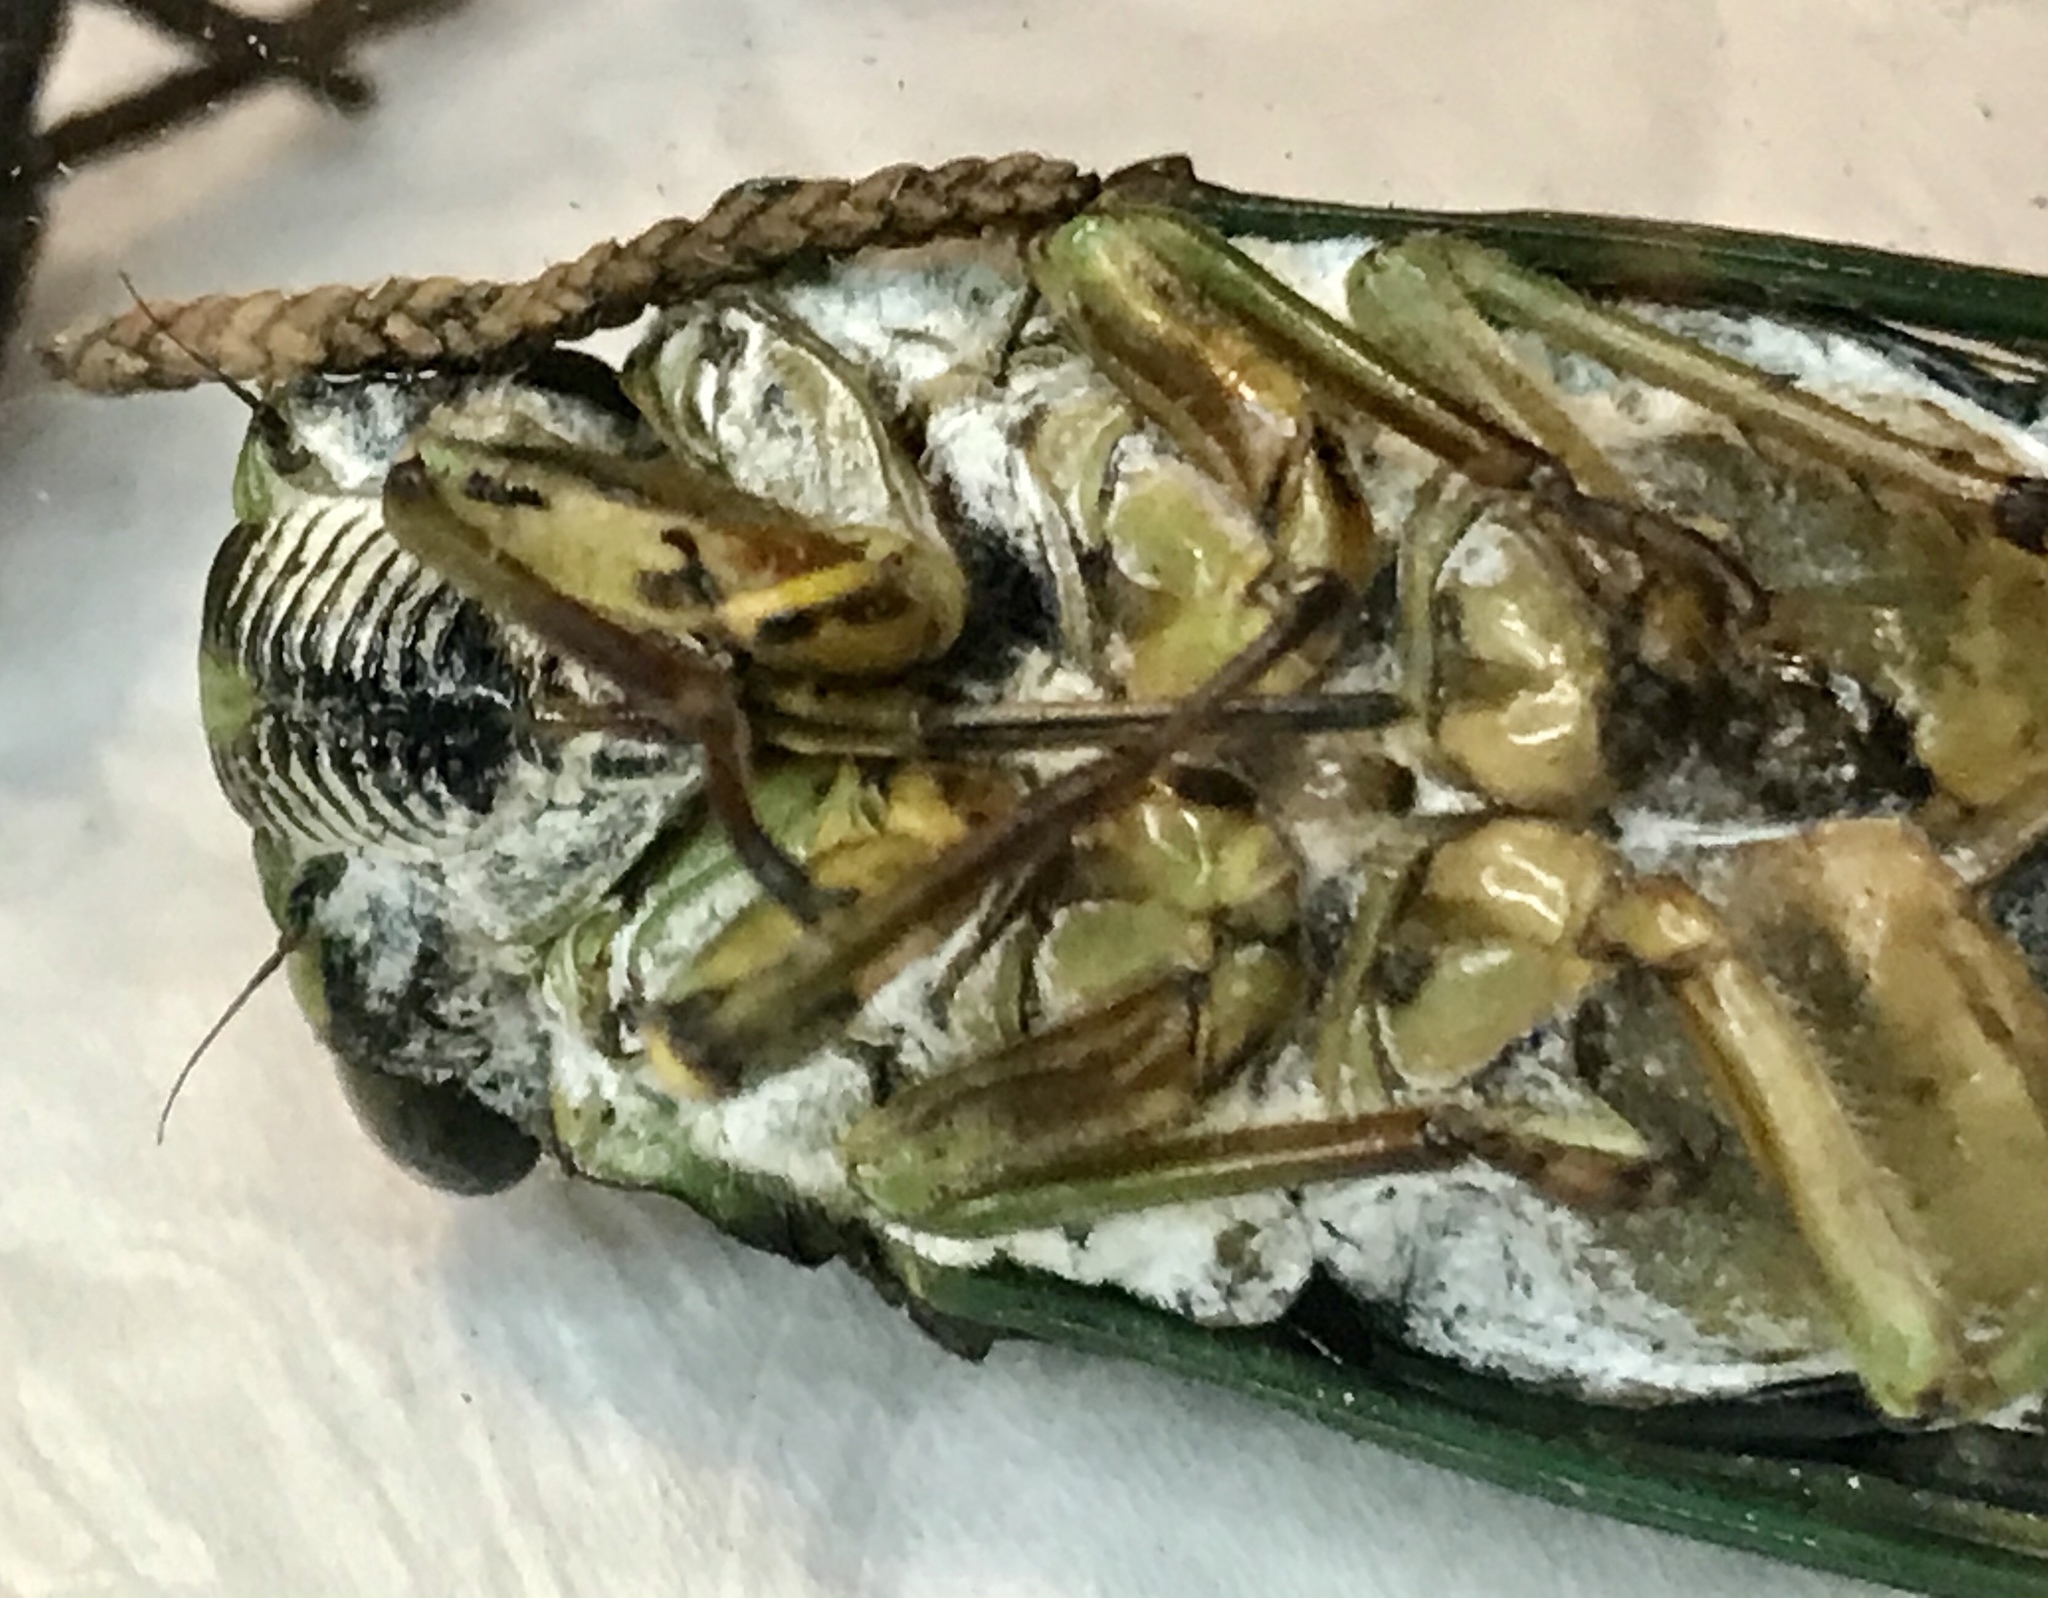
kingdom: Animalia
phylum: Arthropoda
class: Insecta
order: Hemiptera
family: Cicadidae
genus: Neotibicen
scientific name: Neotibicen latifasciatus
